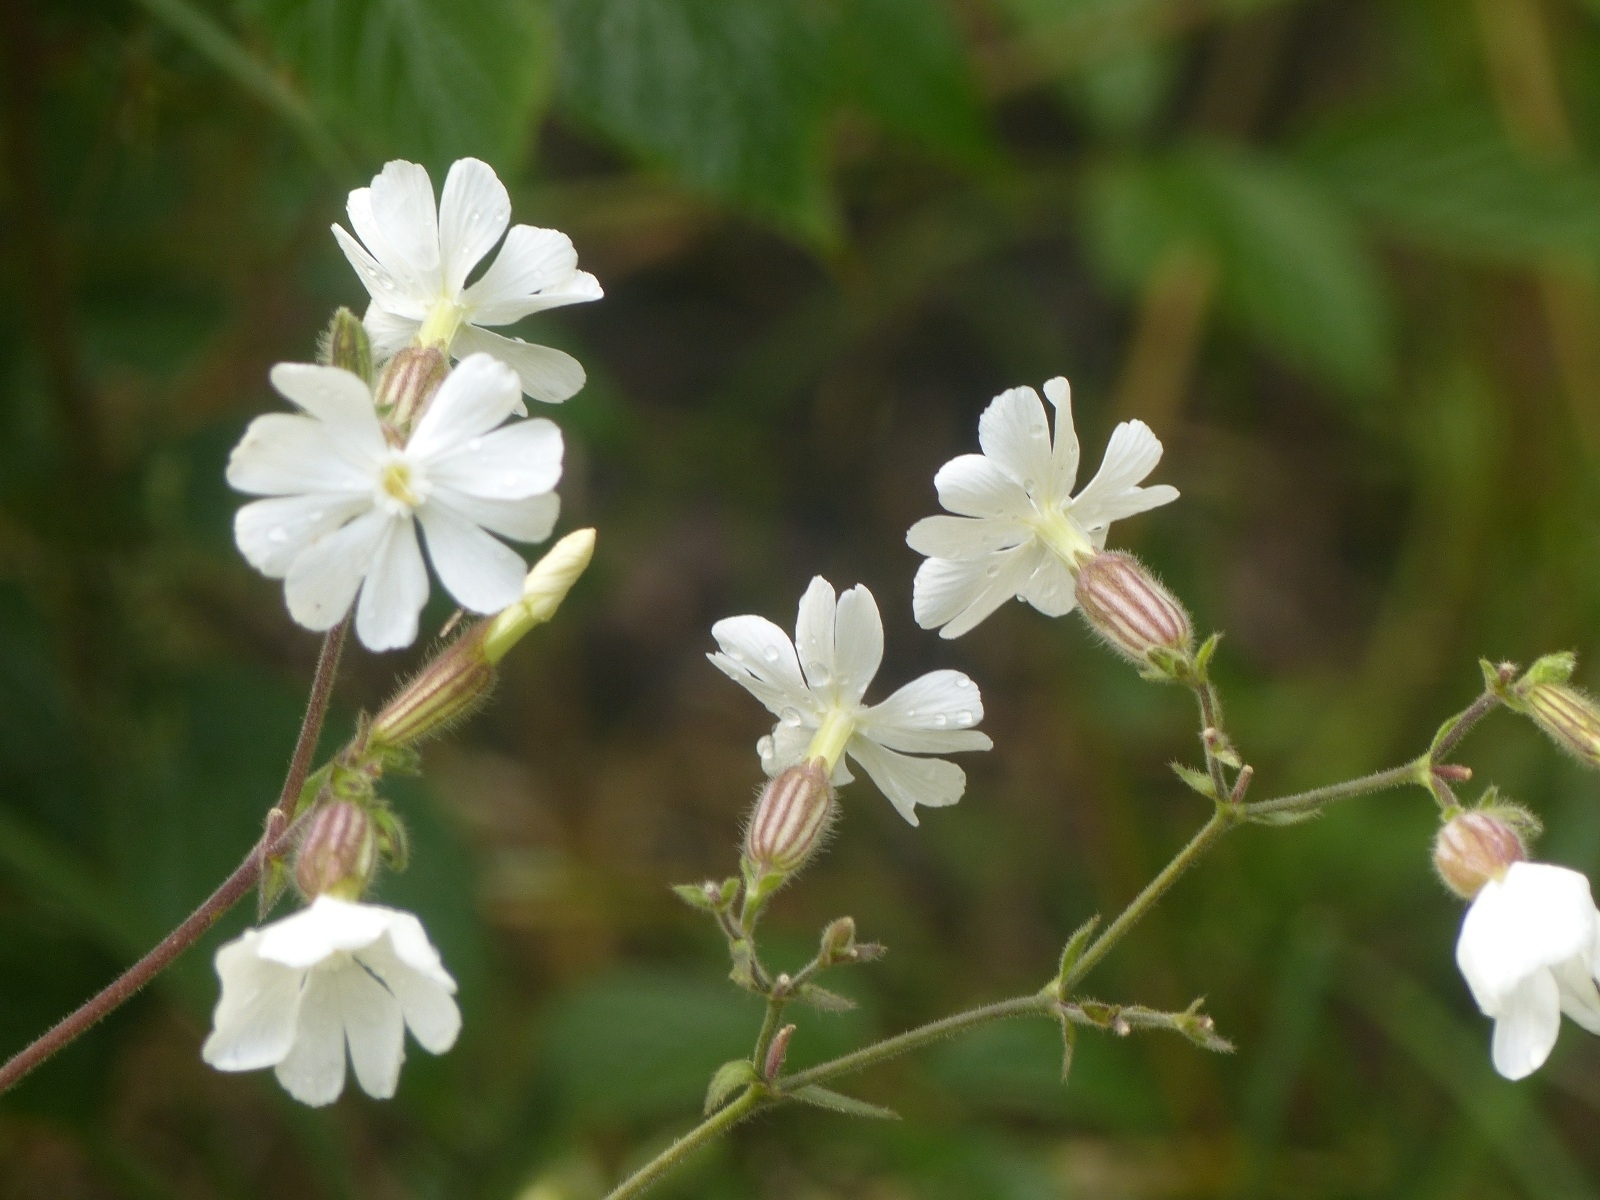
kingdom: Plantae
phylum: Tracheophyta
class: Magnoliopsida
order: Caryophyllales
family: Caryophyllaceae
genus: Silene
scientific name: Silene latifolia
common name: White campion
